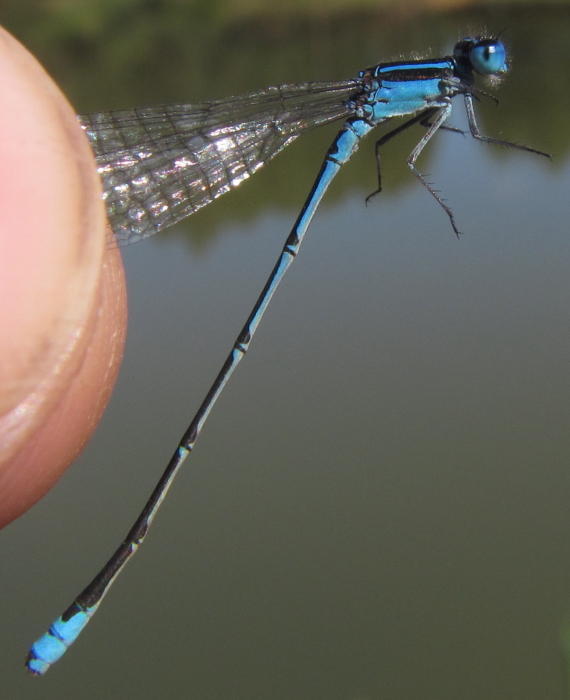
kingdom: Animalia
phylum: Arthropoda
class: Insecta
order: Odonata
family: Coenagrionidae
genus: Azuragrion
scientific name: Azuragrion nigridorsum
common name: Sailing azuret
